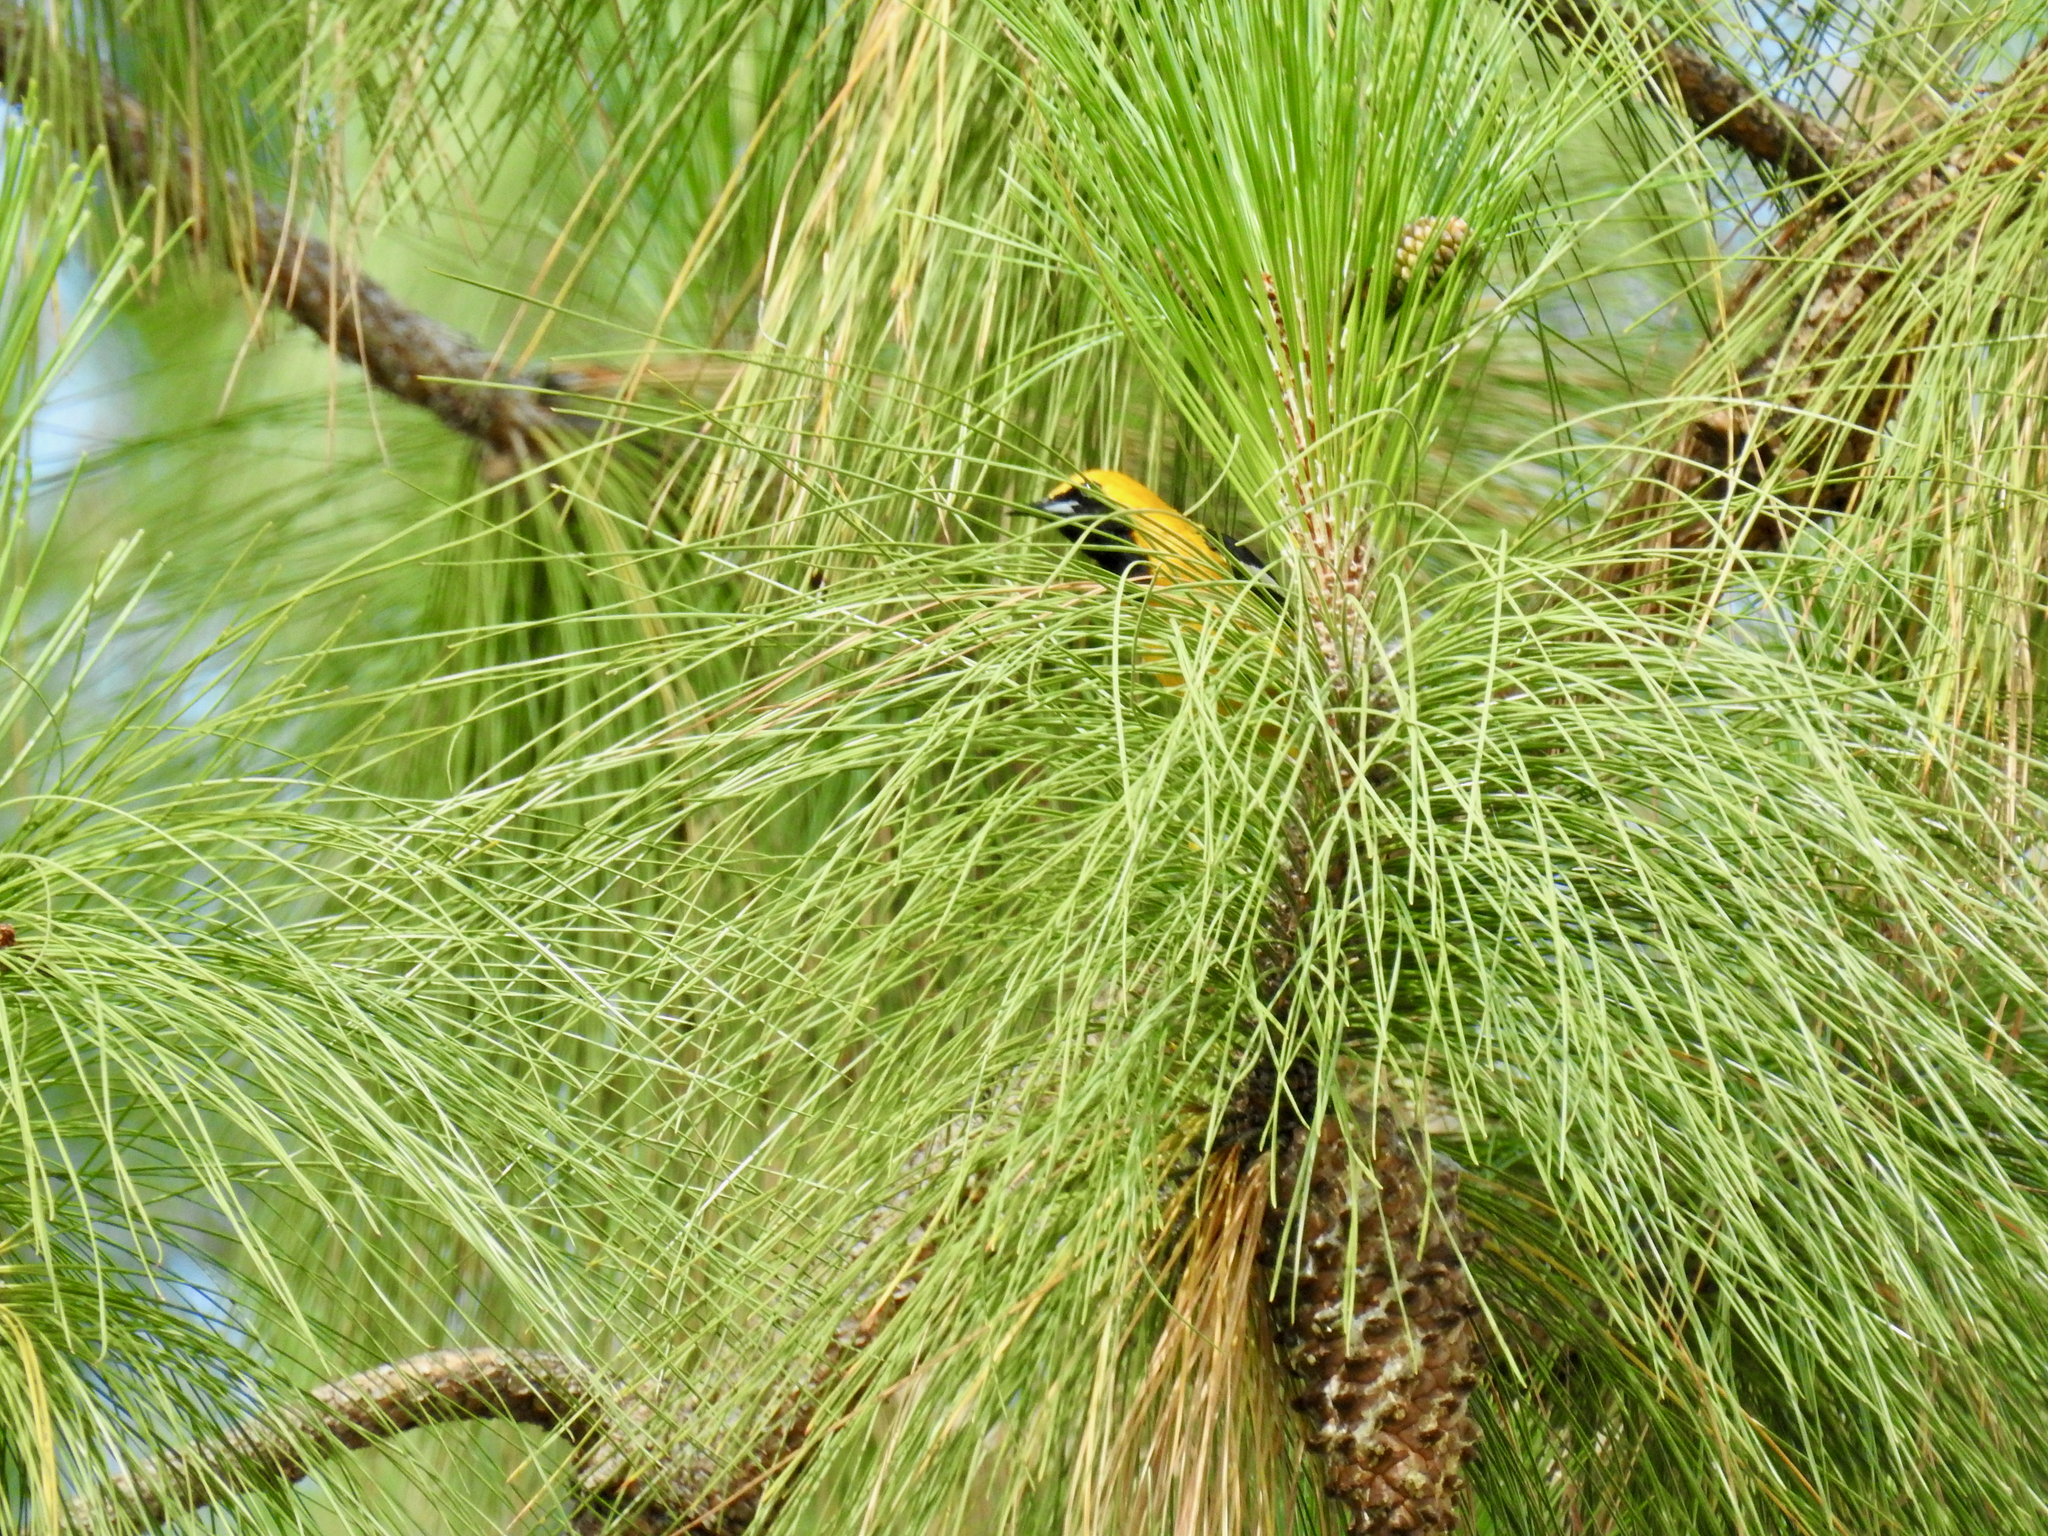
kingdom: Animalia
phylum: Chordata
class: Aves
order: Passeriformes
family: Icteridae
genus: Icterus
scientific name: Icterus cucullatus
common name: Hooded oriole
